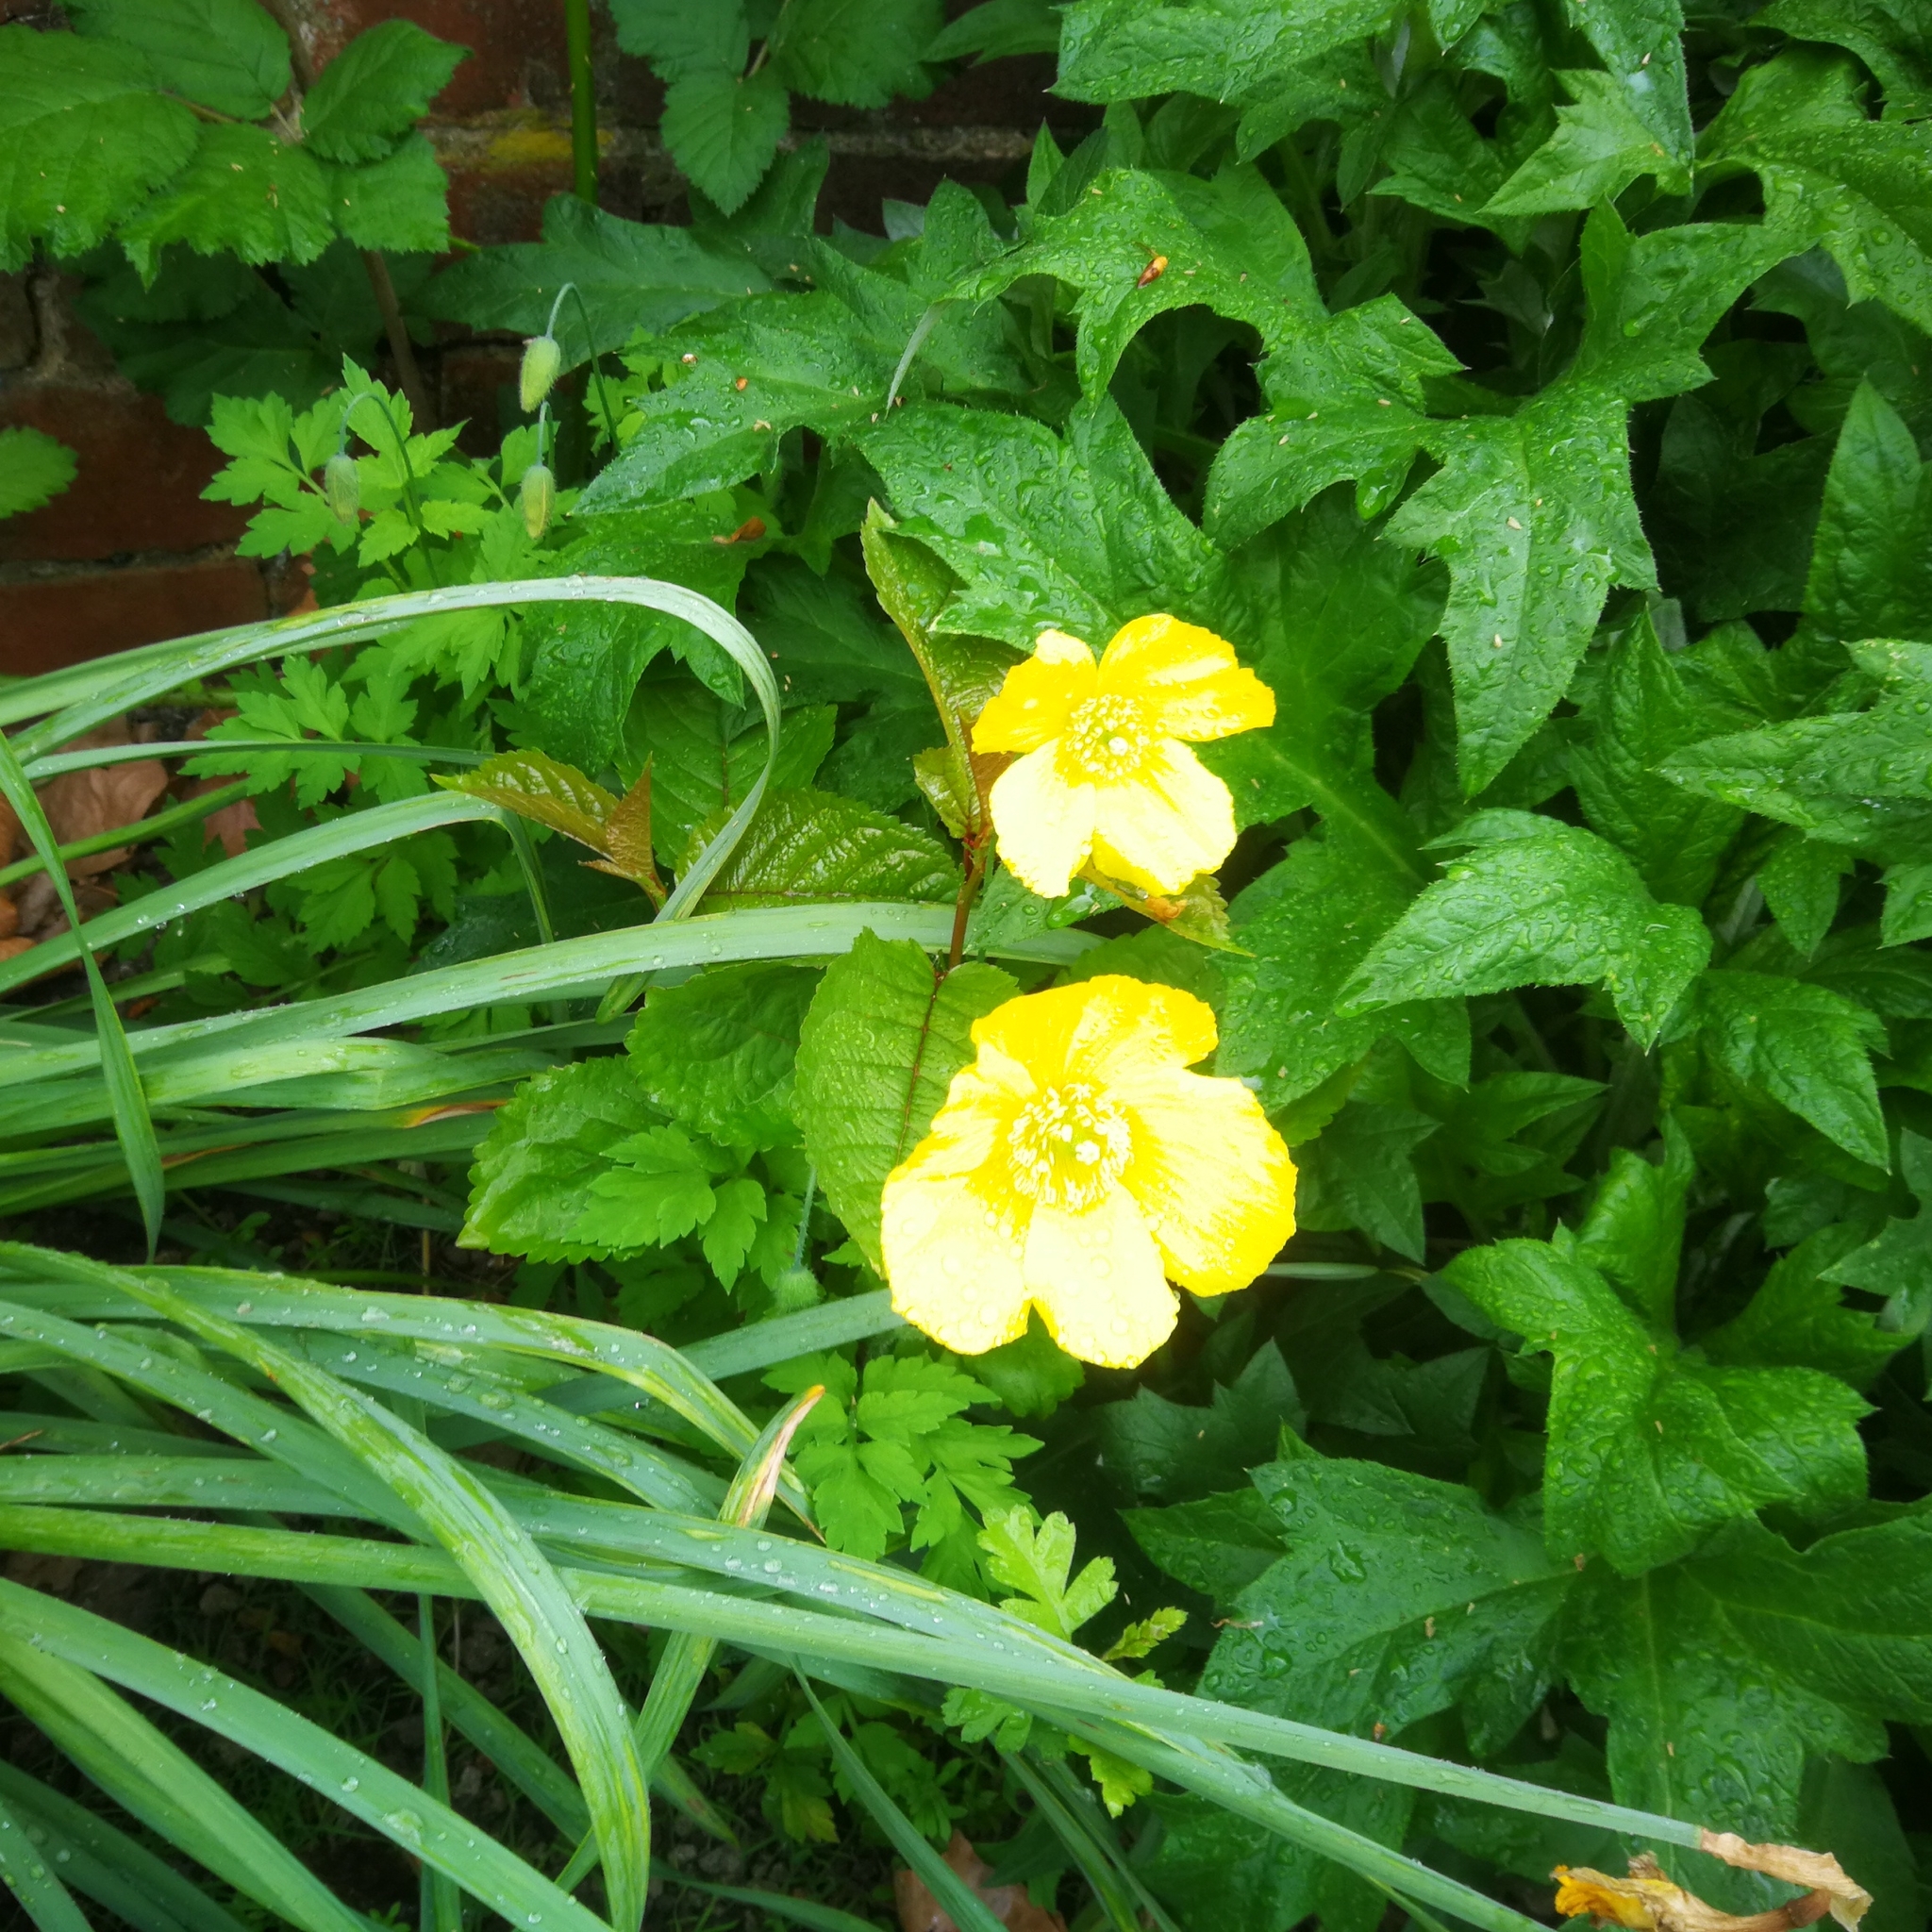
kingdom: Plantae
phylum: Tracheophyta
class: Magnoliopsida
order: Ranunculales
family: Papaveraceae
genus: Papaver
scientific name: Papaver cambricum
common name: Poppy
